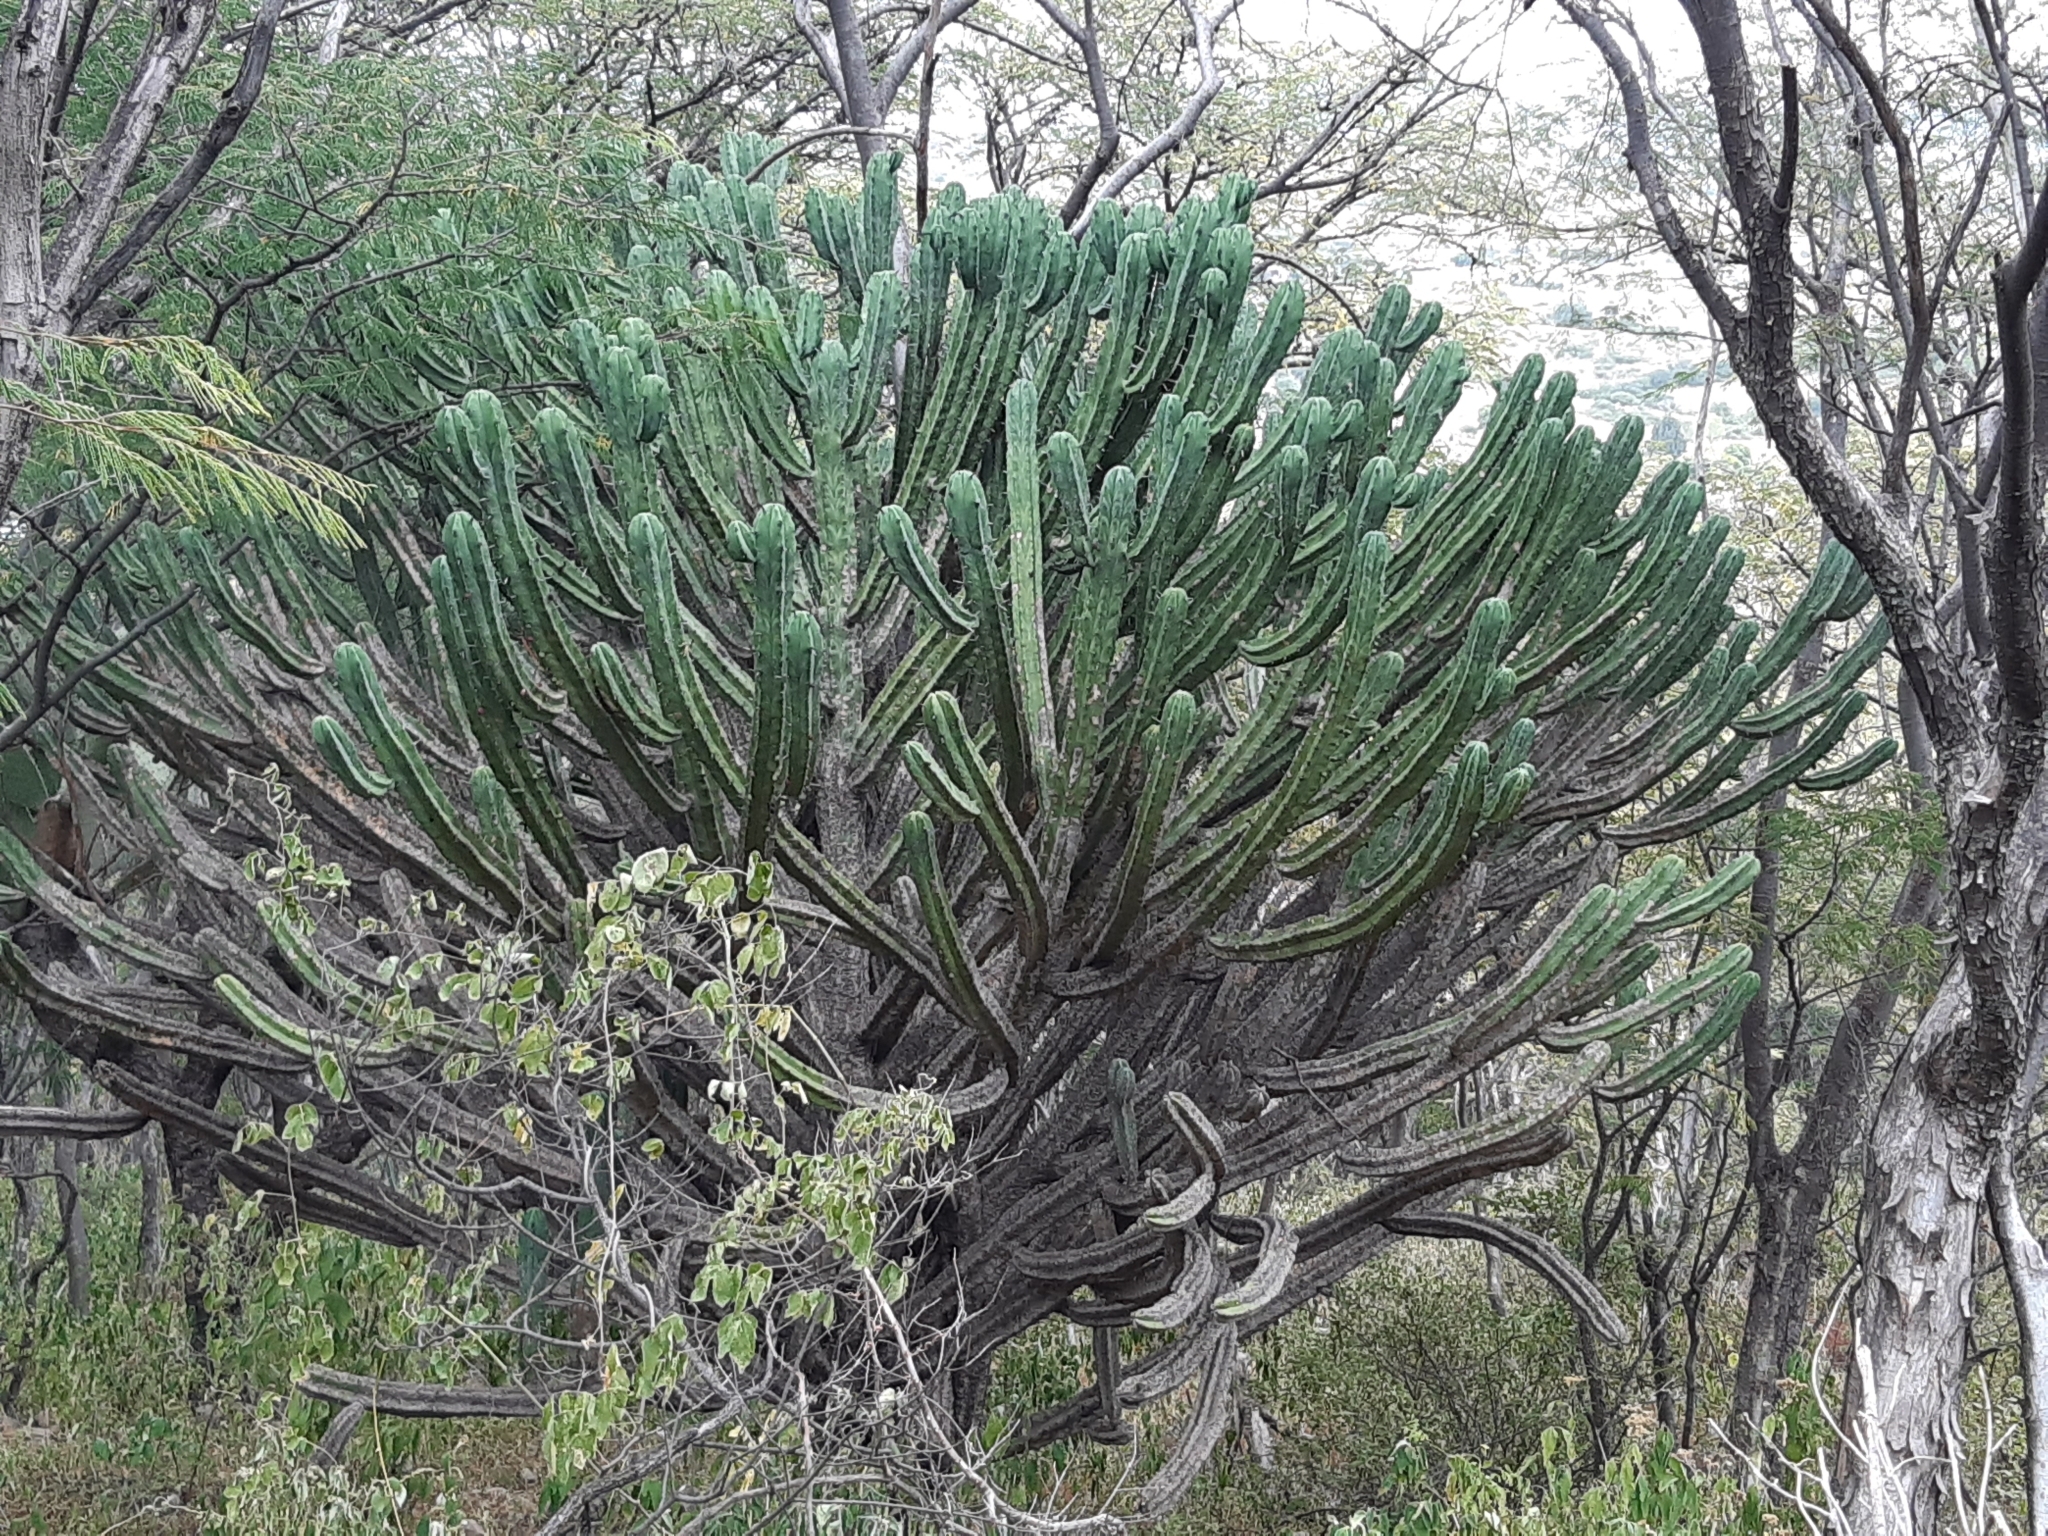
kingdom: Plantae
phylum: Tracheophyta
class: Magnoliopsida
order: Caryophyllales
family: Cactaceae
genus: Myrtillocactus
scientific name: Myrtillocactus geometrizans
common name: Bilberry cactus
